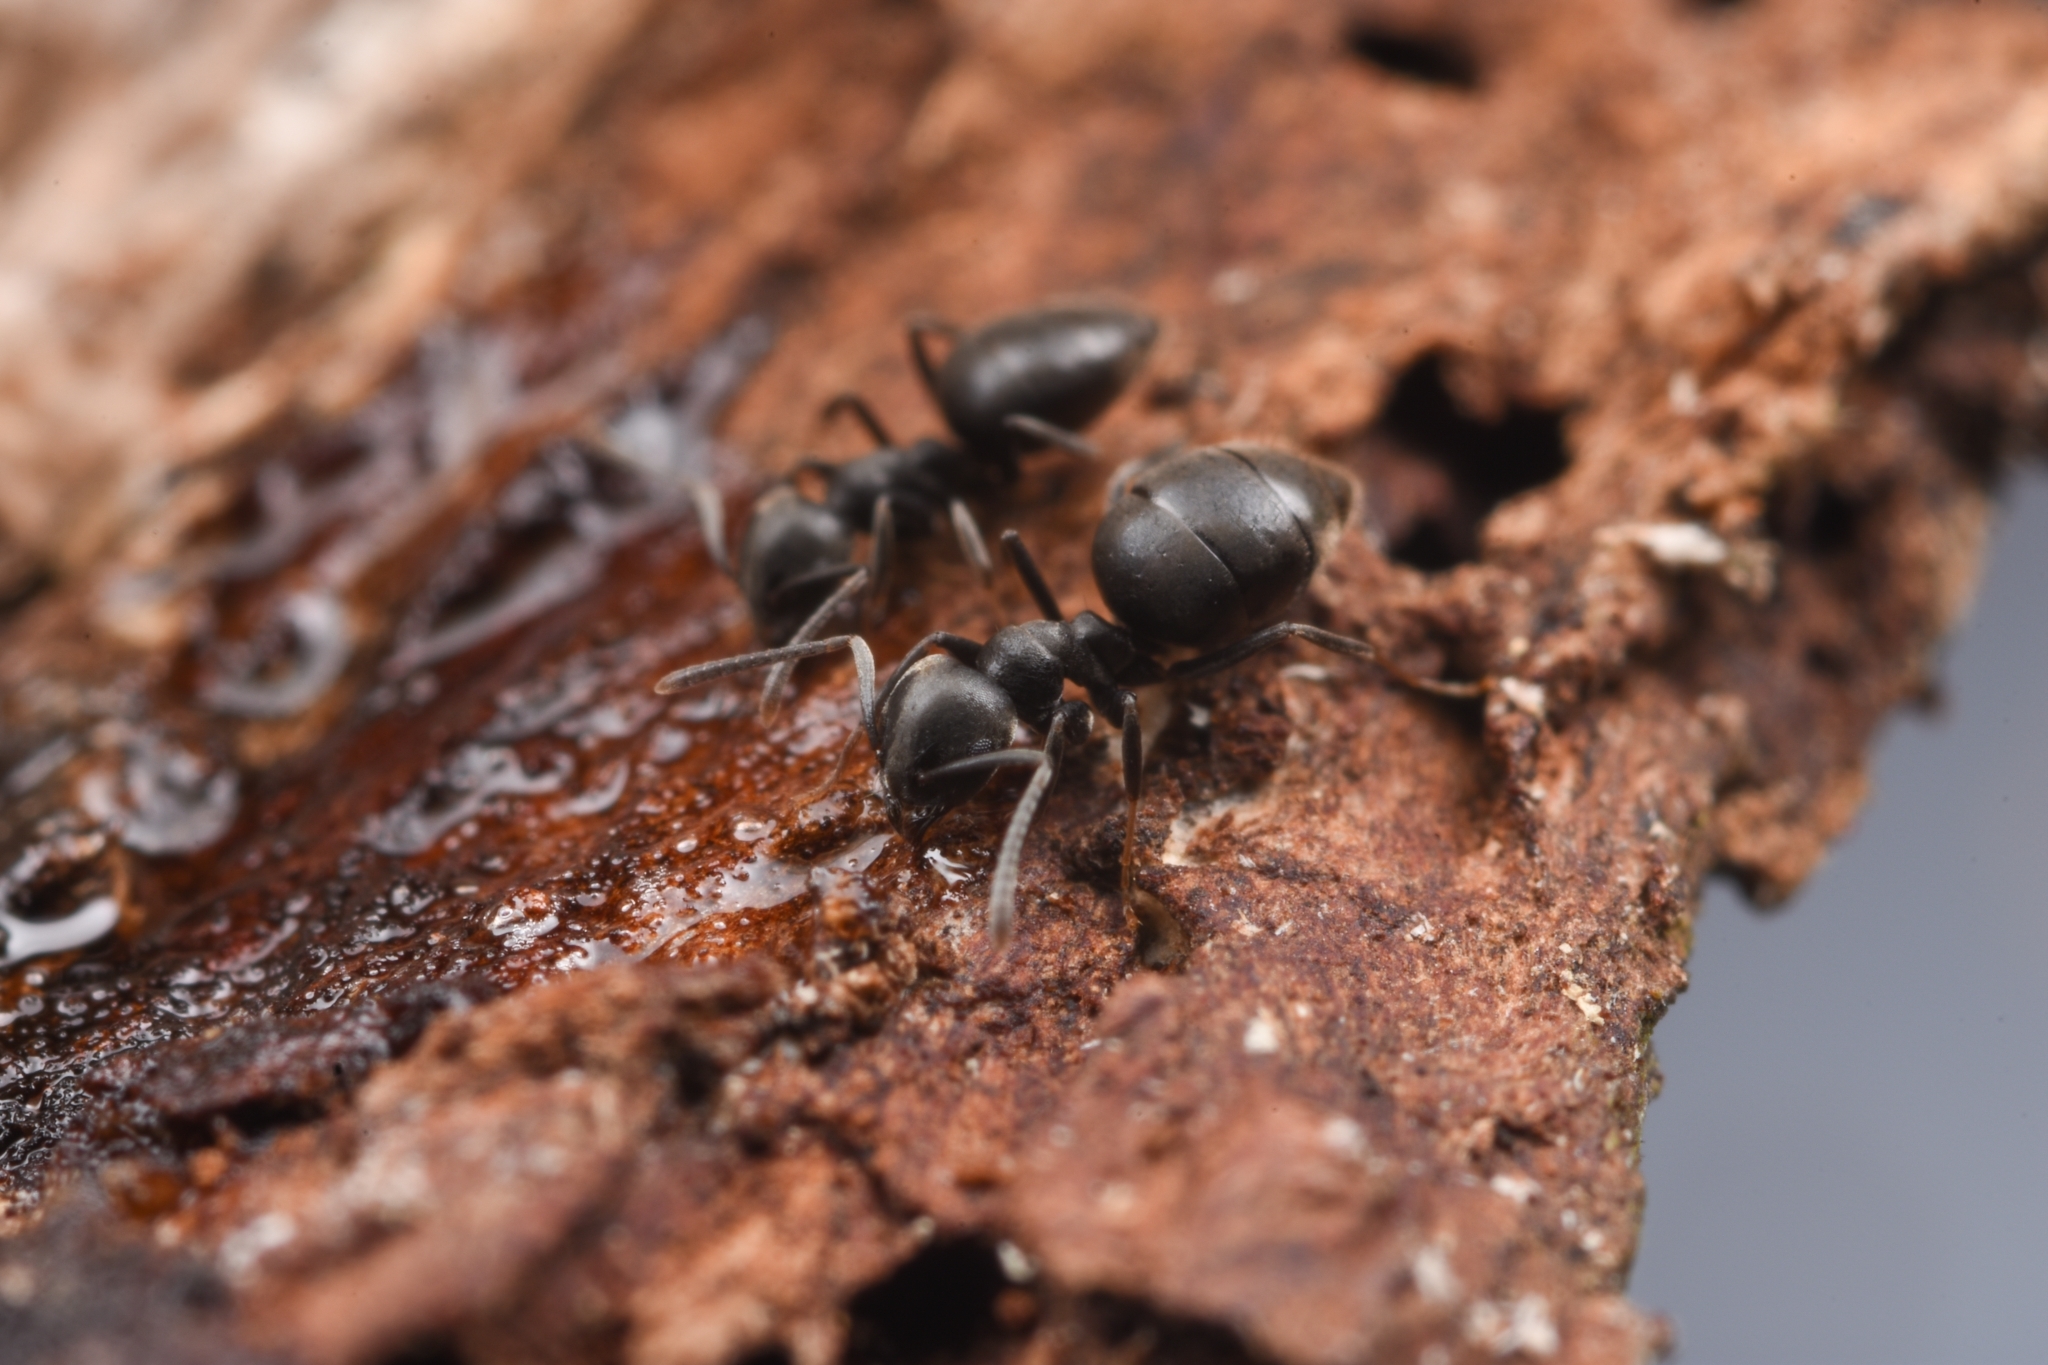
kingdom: Animalia
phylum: Arthropoda
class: Insecta
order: Hymenoptera
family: Formicidae
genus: Technomyrmex
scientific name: Technomyrmex brunneus
